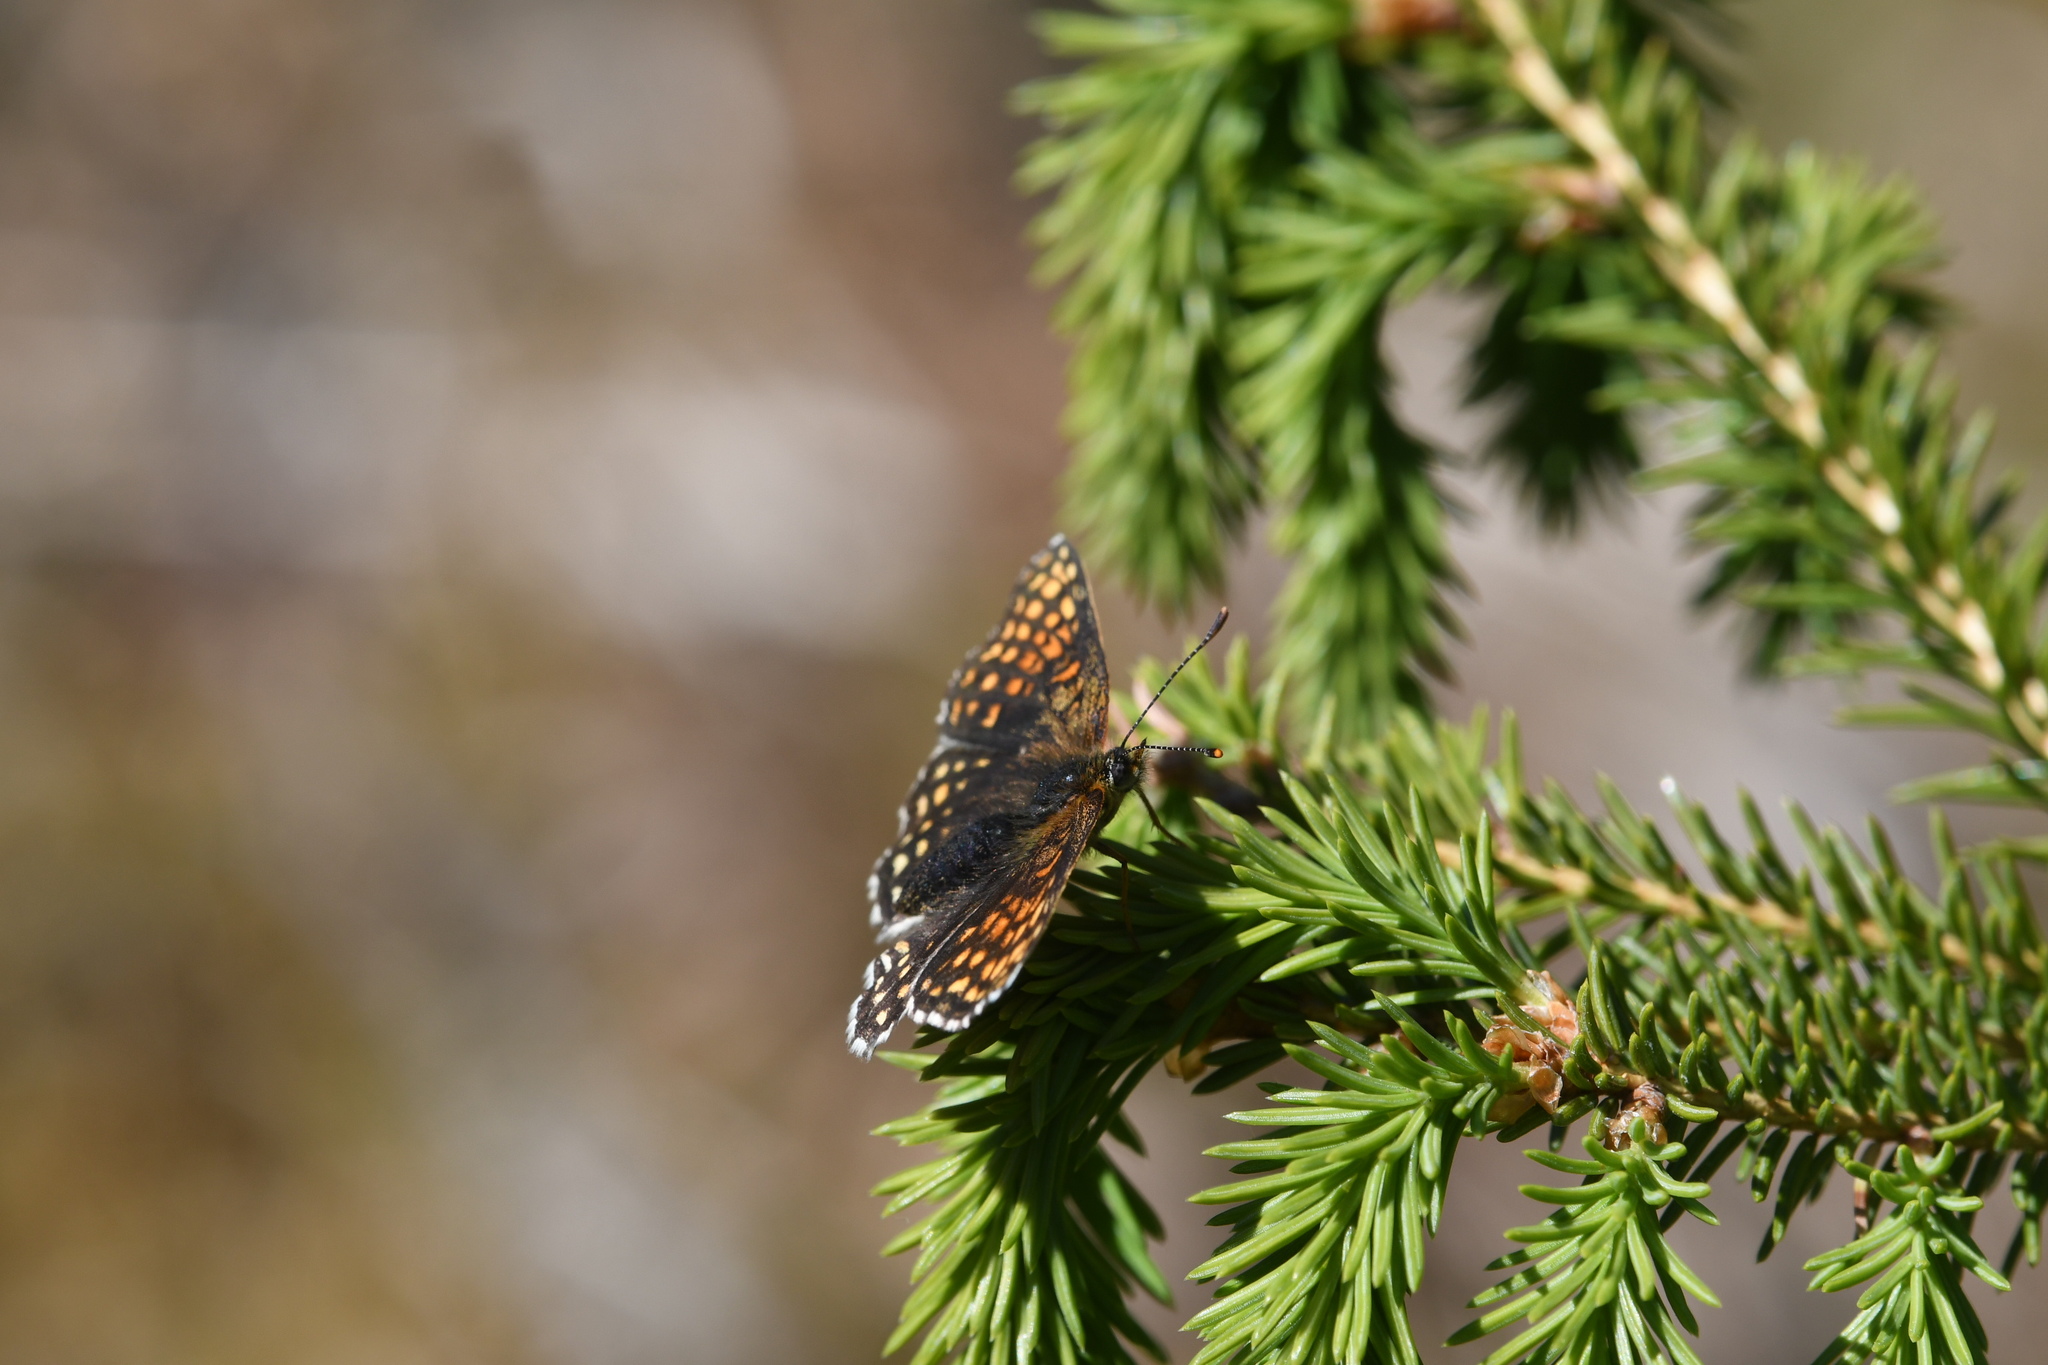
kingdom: Animalia
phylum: Arthropoda
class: Insecta
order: Lepidoptera
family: Nymphalidae
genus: Melitaea
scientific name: Melitaea diamina
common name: False heath fritillary
